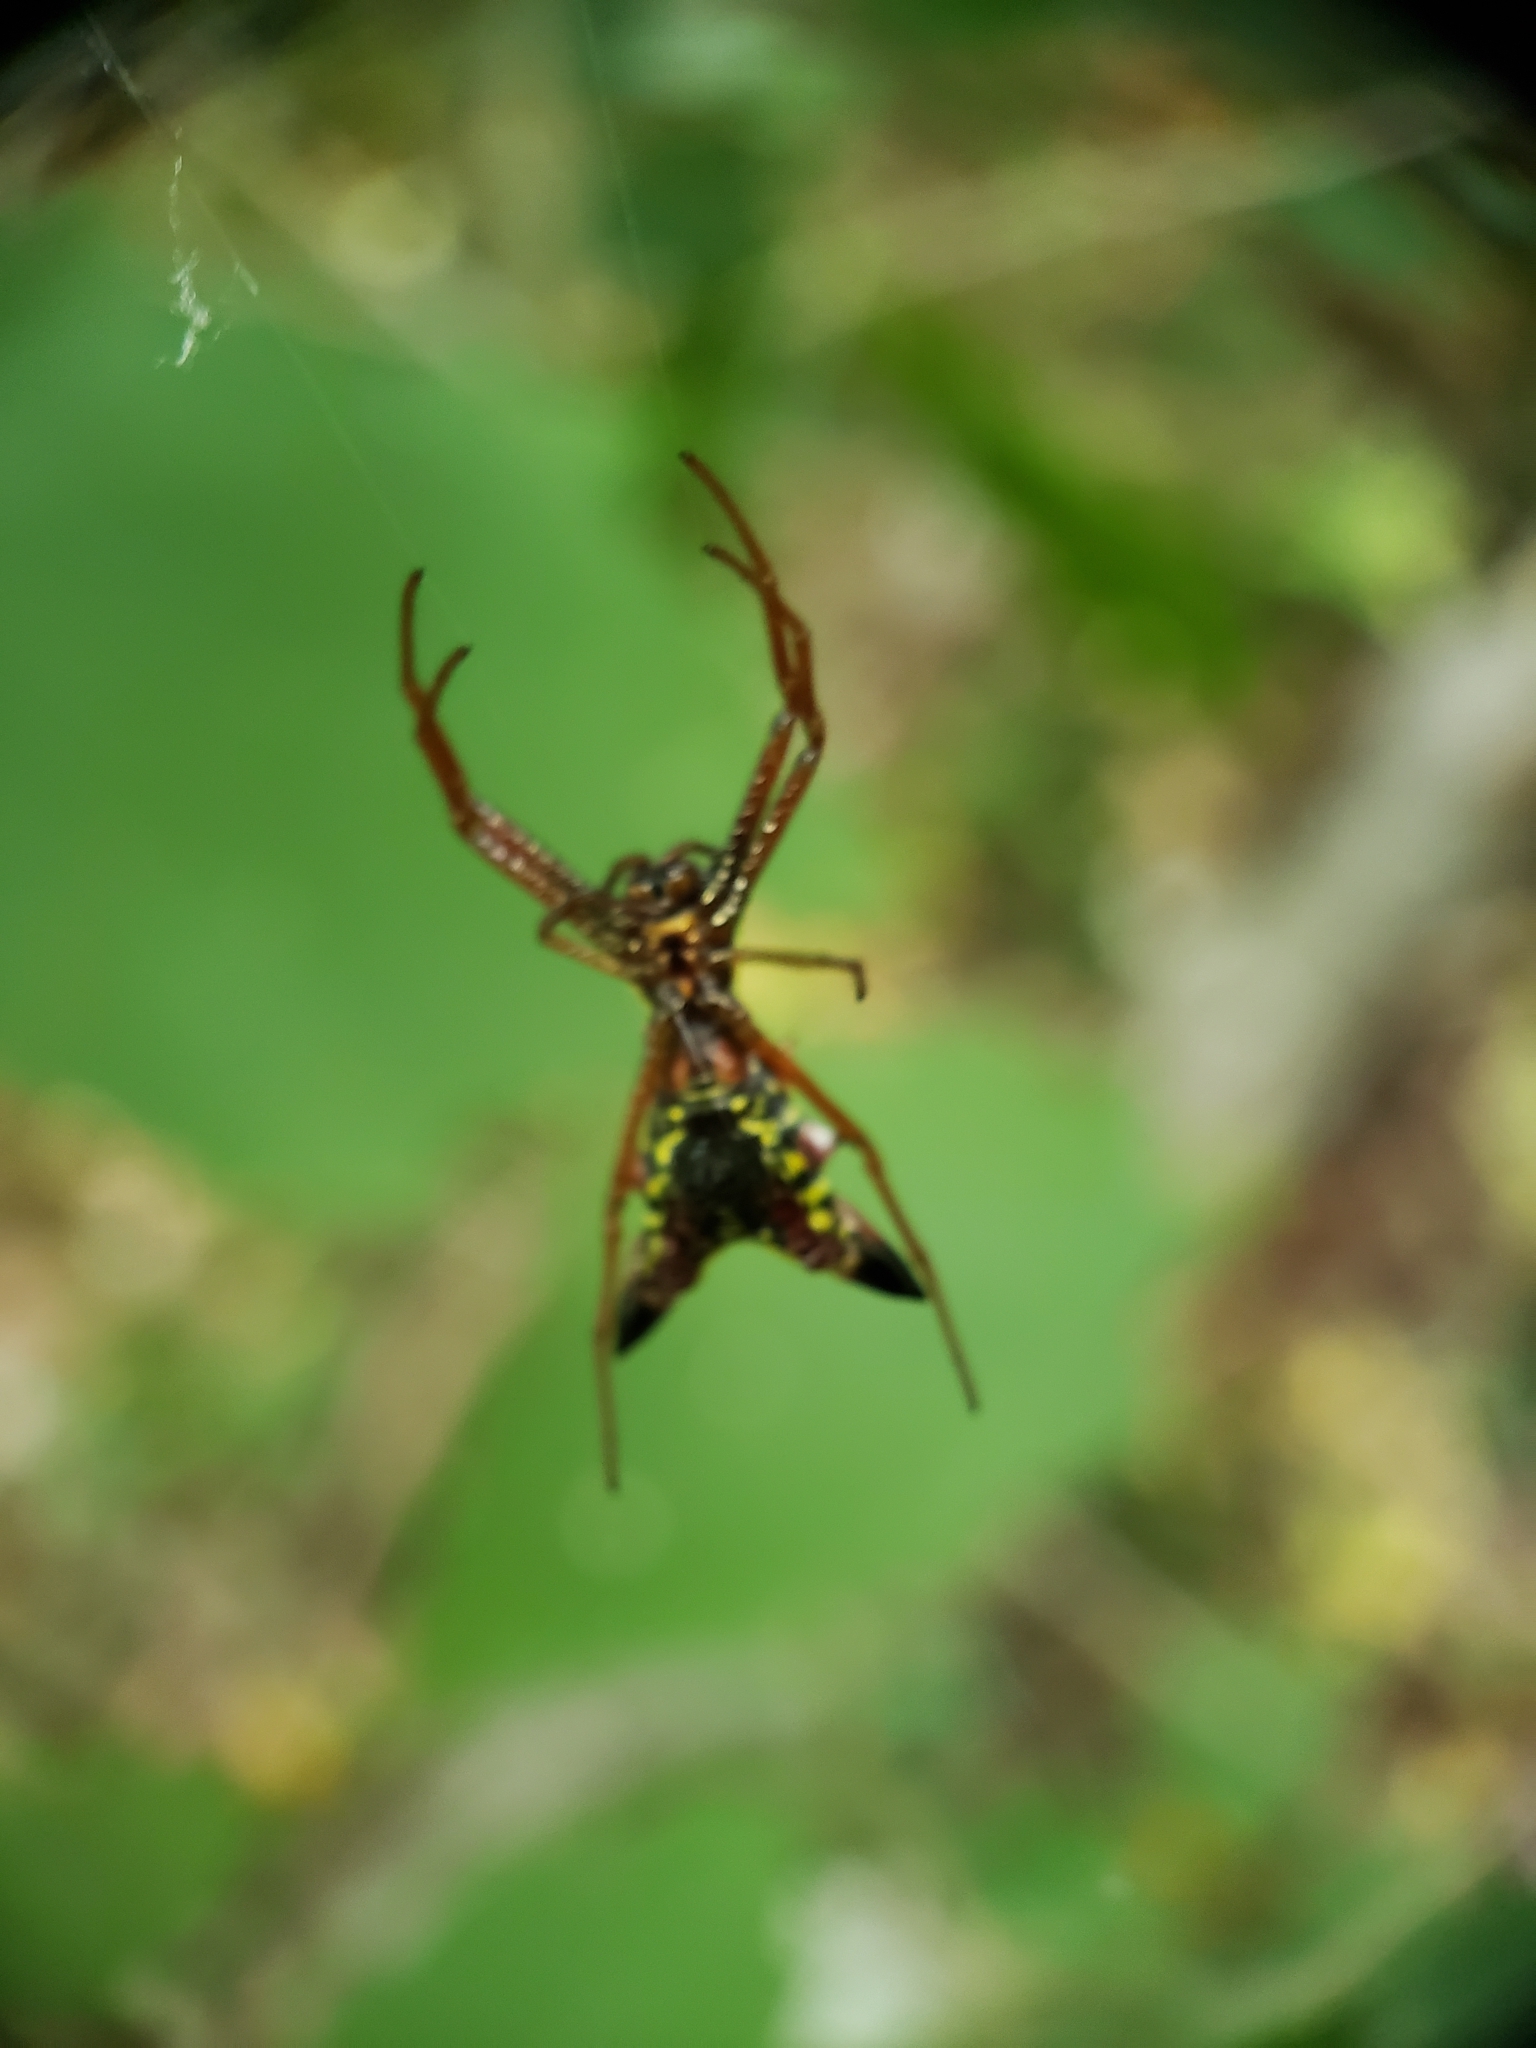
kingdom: Animalia
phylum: Arthropoda
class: Arachnida
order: Araneae
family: Araneidae
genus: Micrathena
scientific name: Micrathena sagittata
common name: Orb weavers
